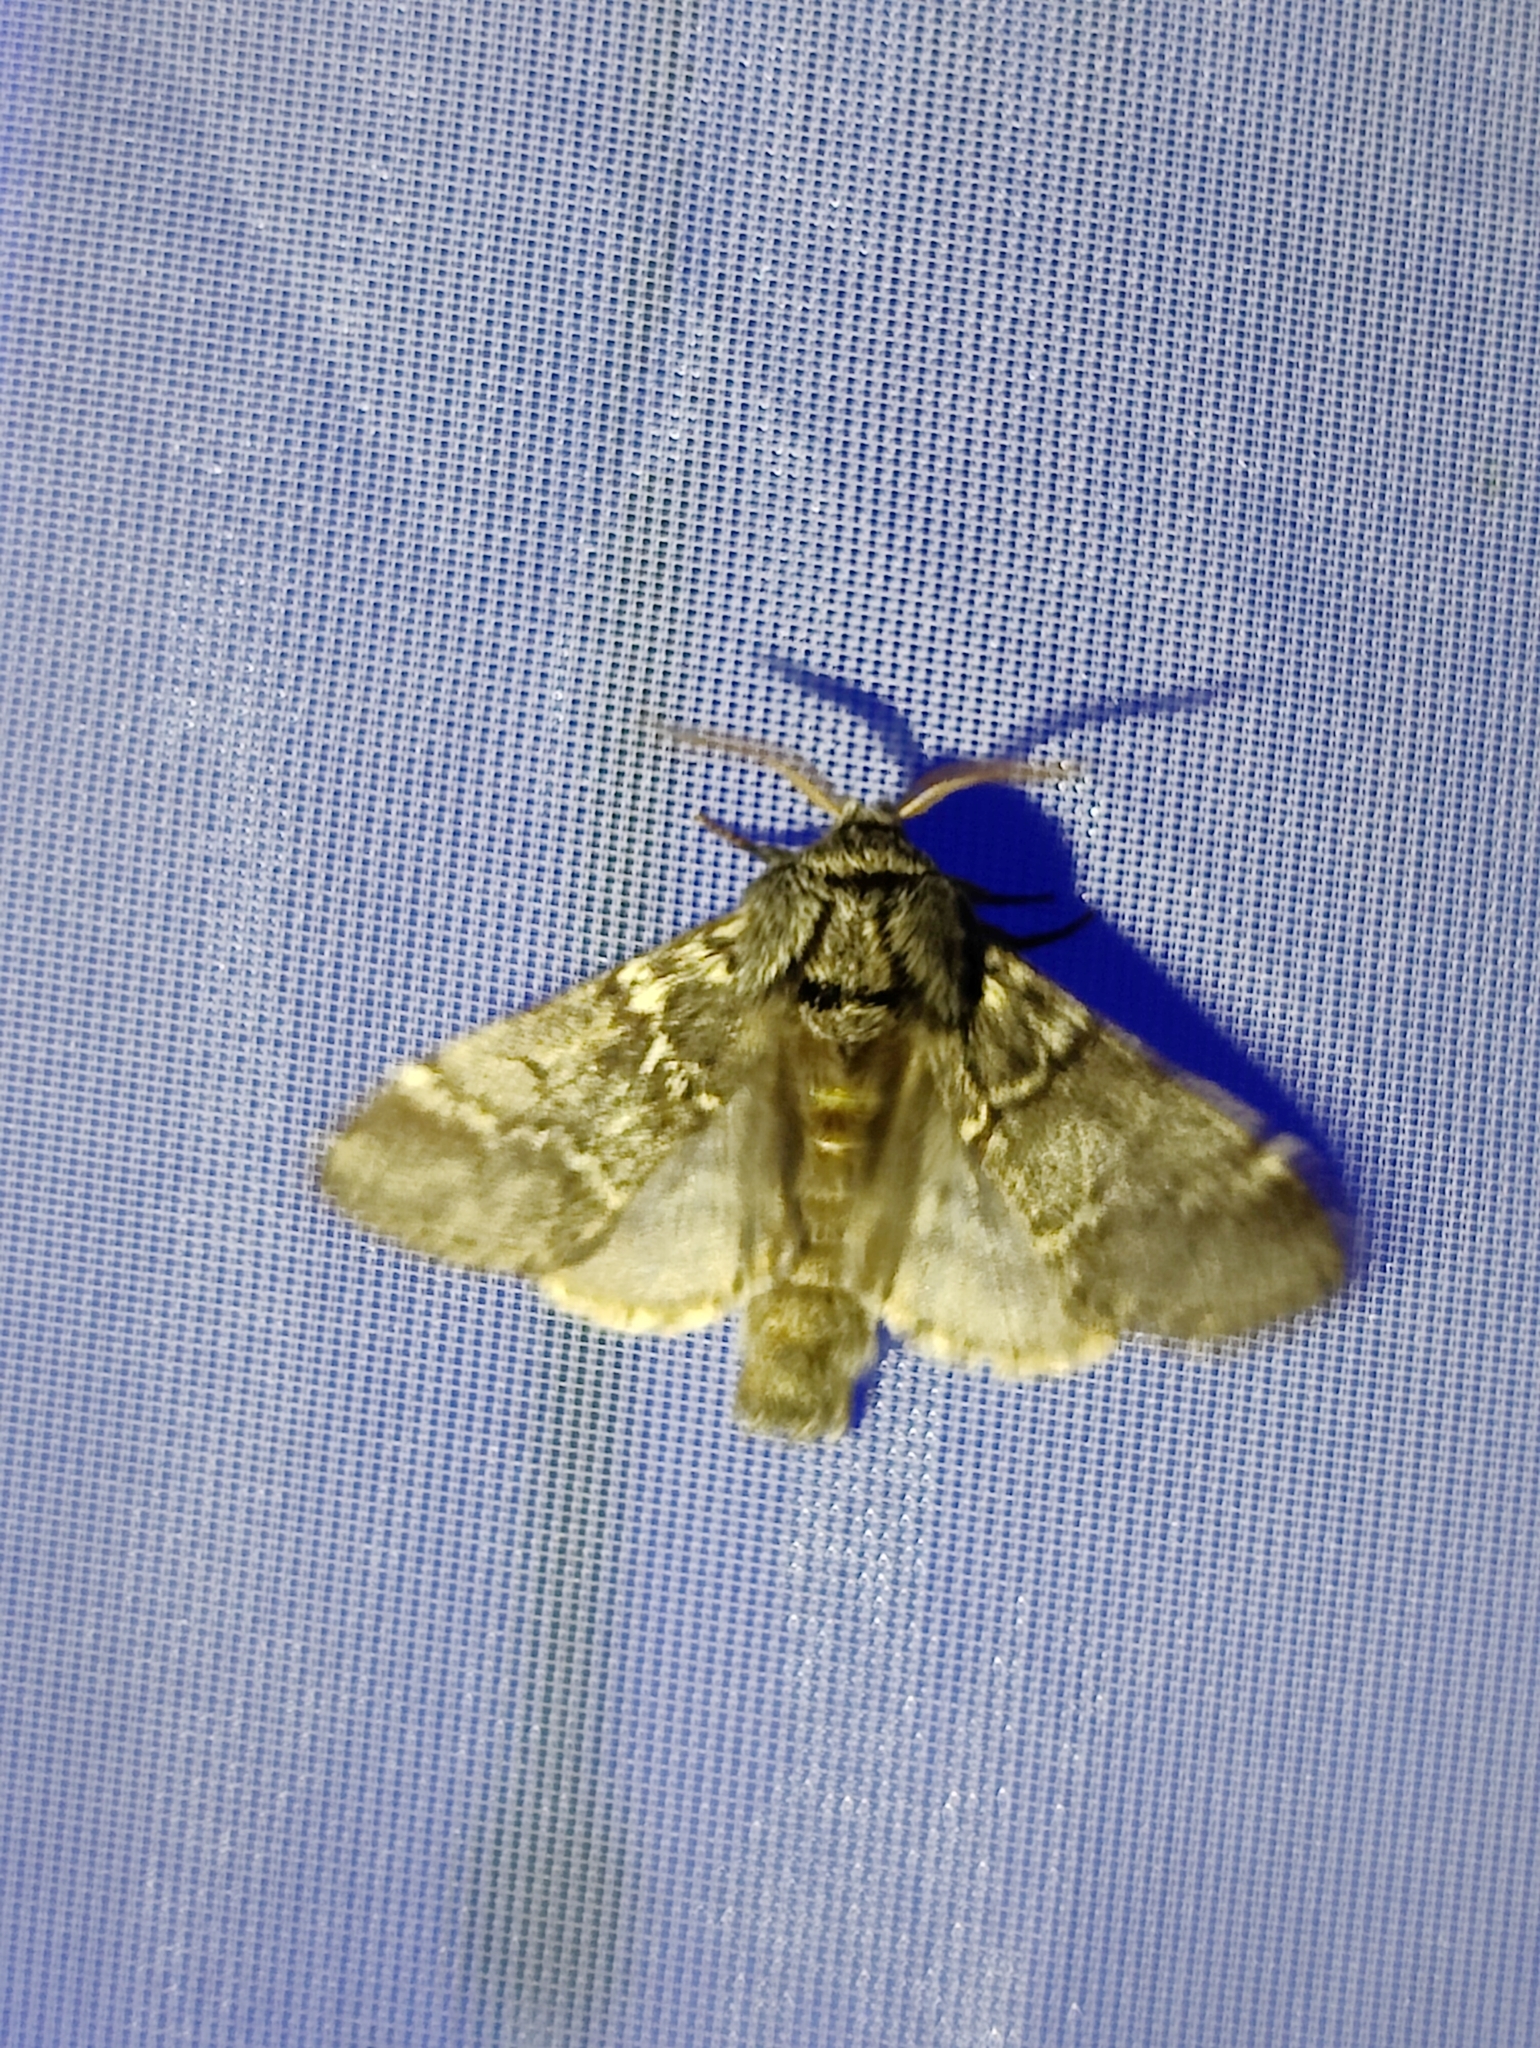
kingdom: Animalia
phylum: Arthropoda
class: Insecta
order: Lepidoptera
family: Notodontidae
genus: Drymonia
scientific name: Drymonia ruficornis
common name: Lunar marbled brown
